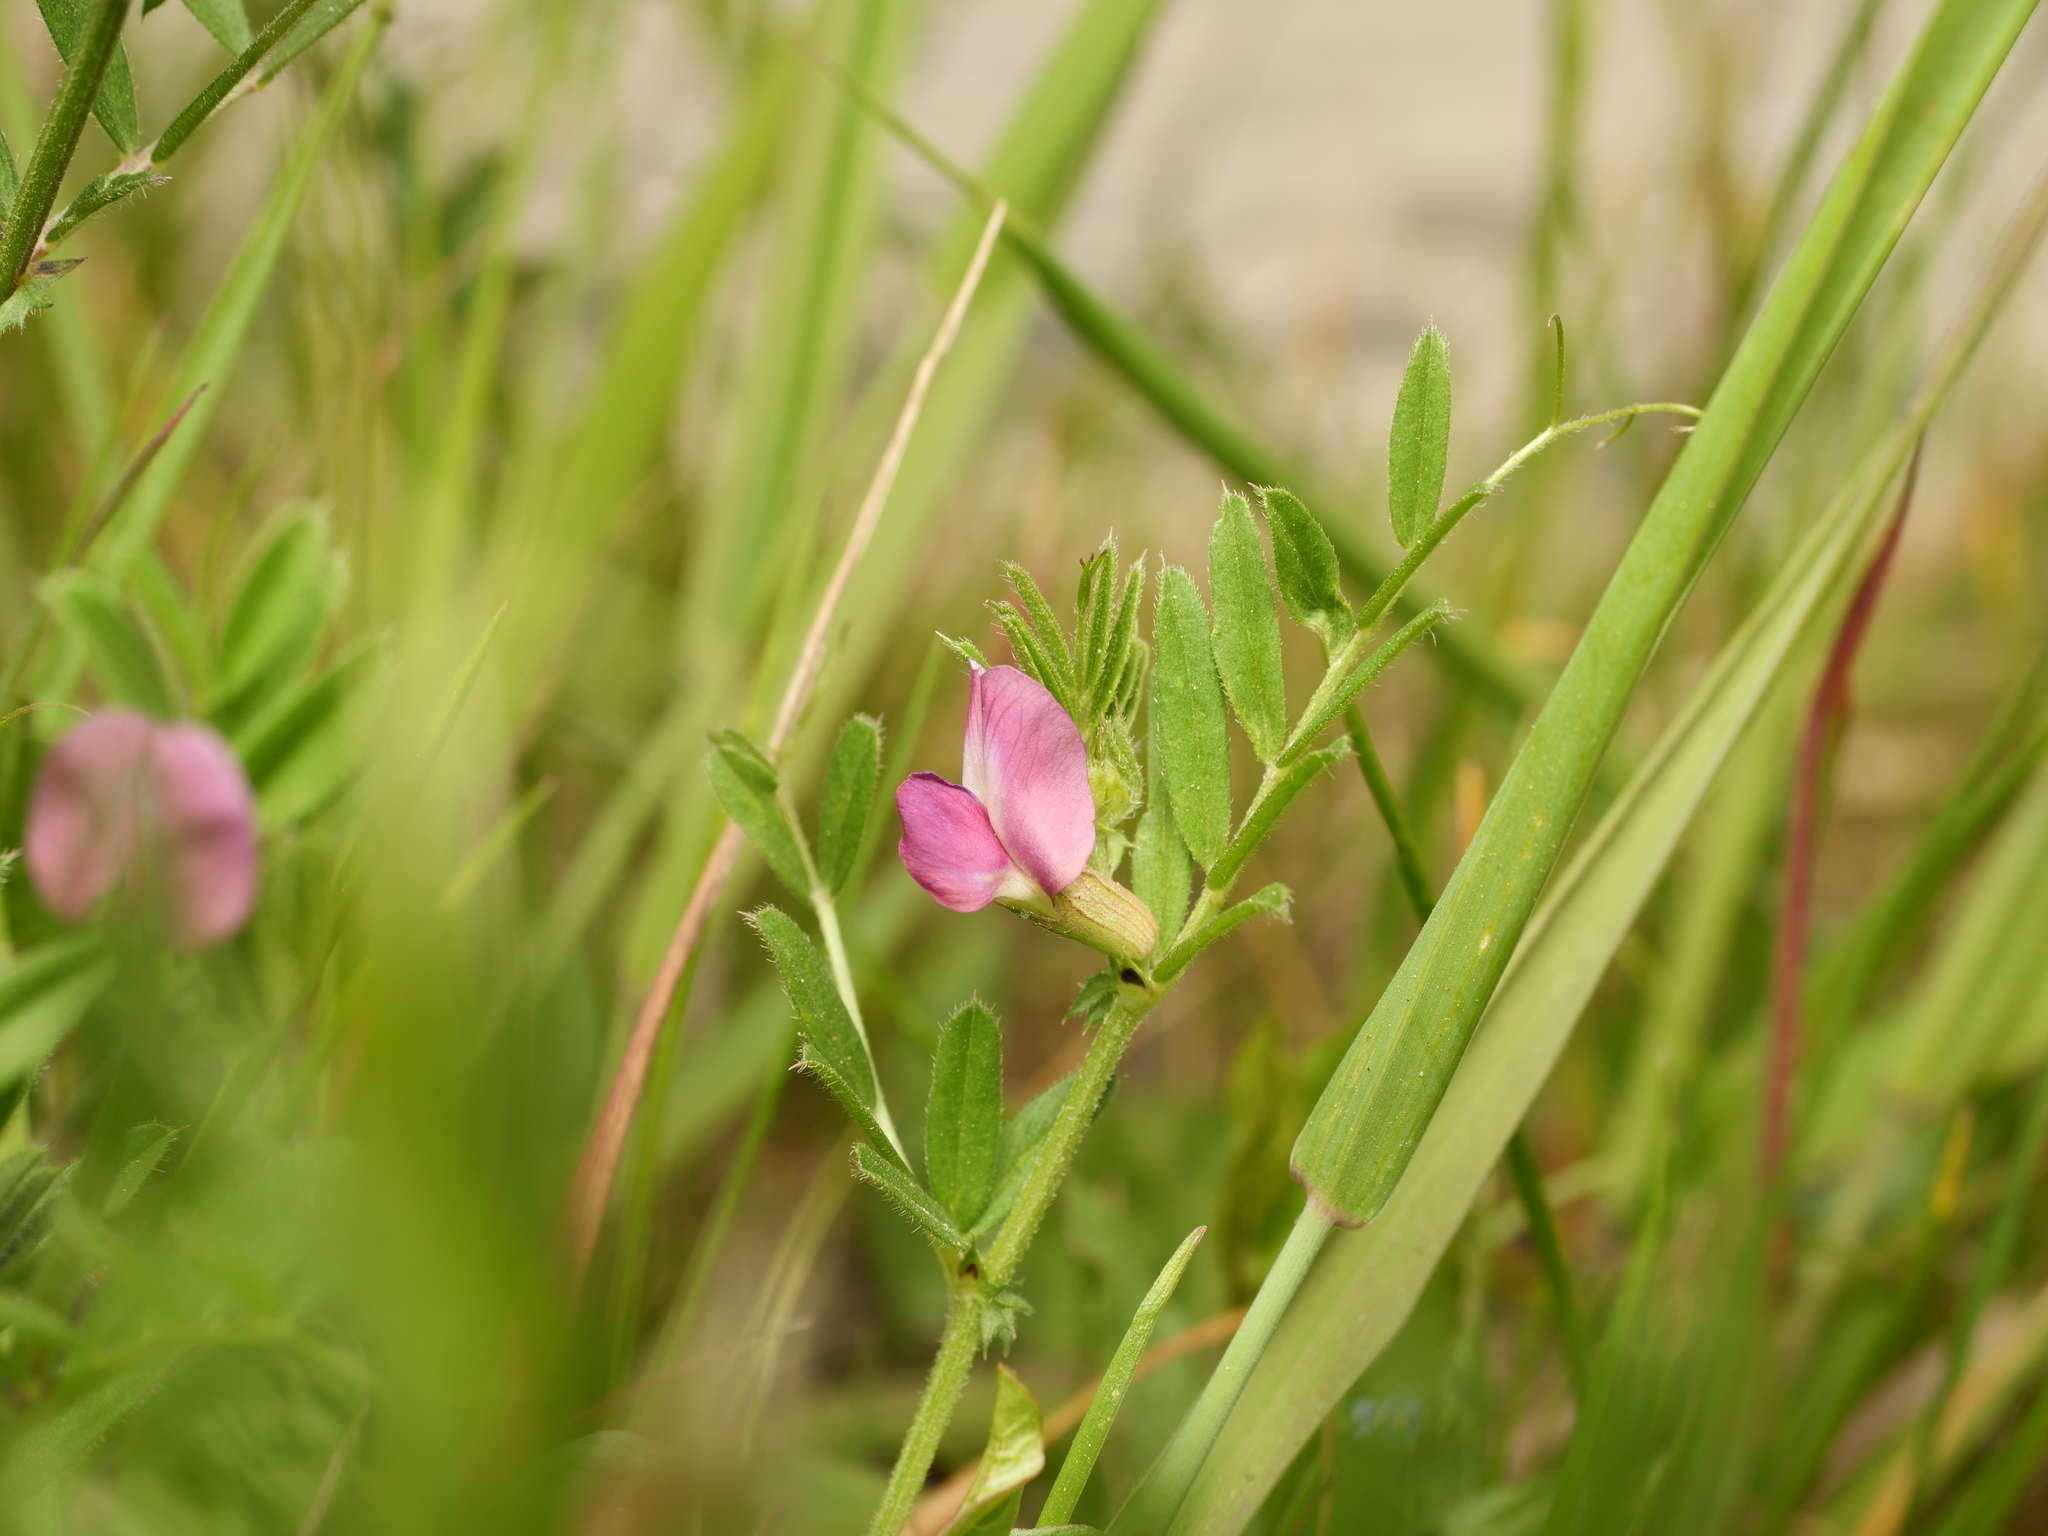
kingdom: Plantae
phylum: Tracheophyta
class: Magnoliopsida
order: Fabales
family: Fabaceae
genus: Vicia
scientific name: Vicia sativa
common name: Garden vetch
